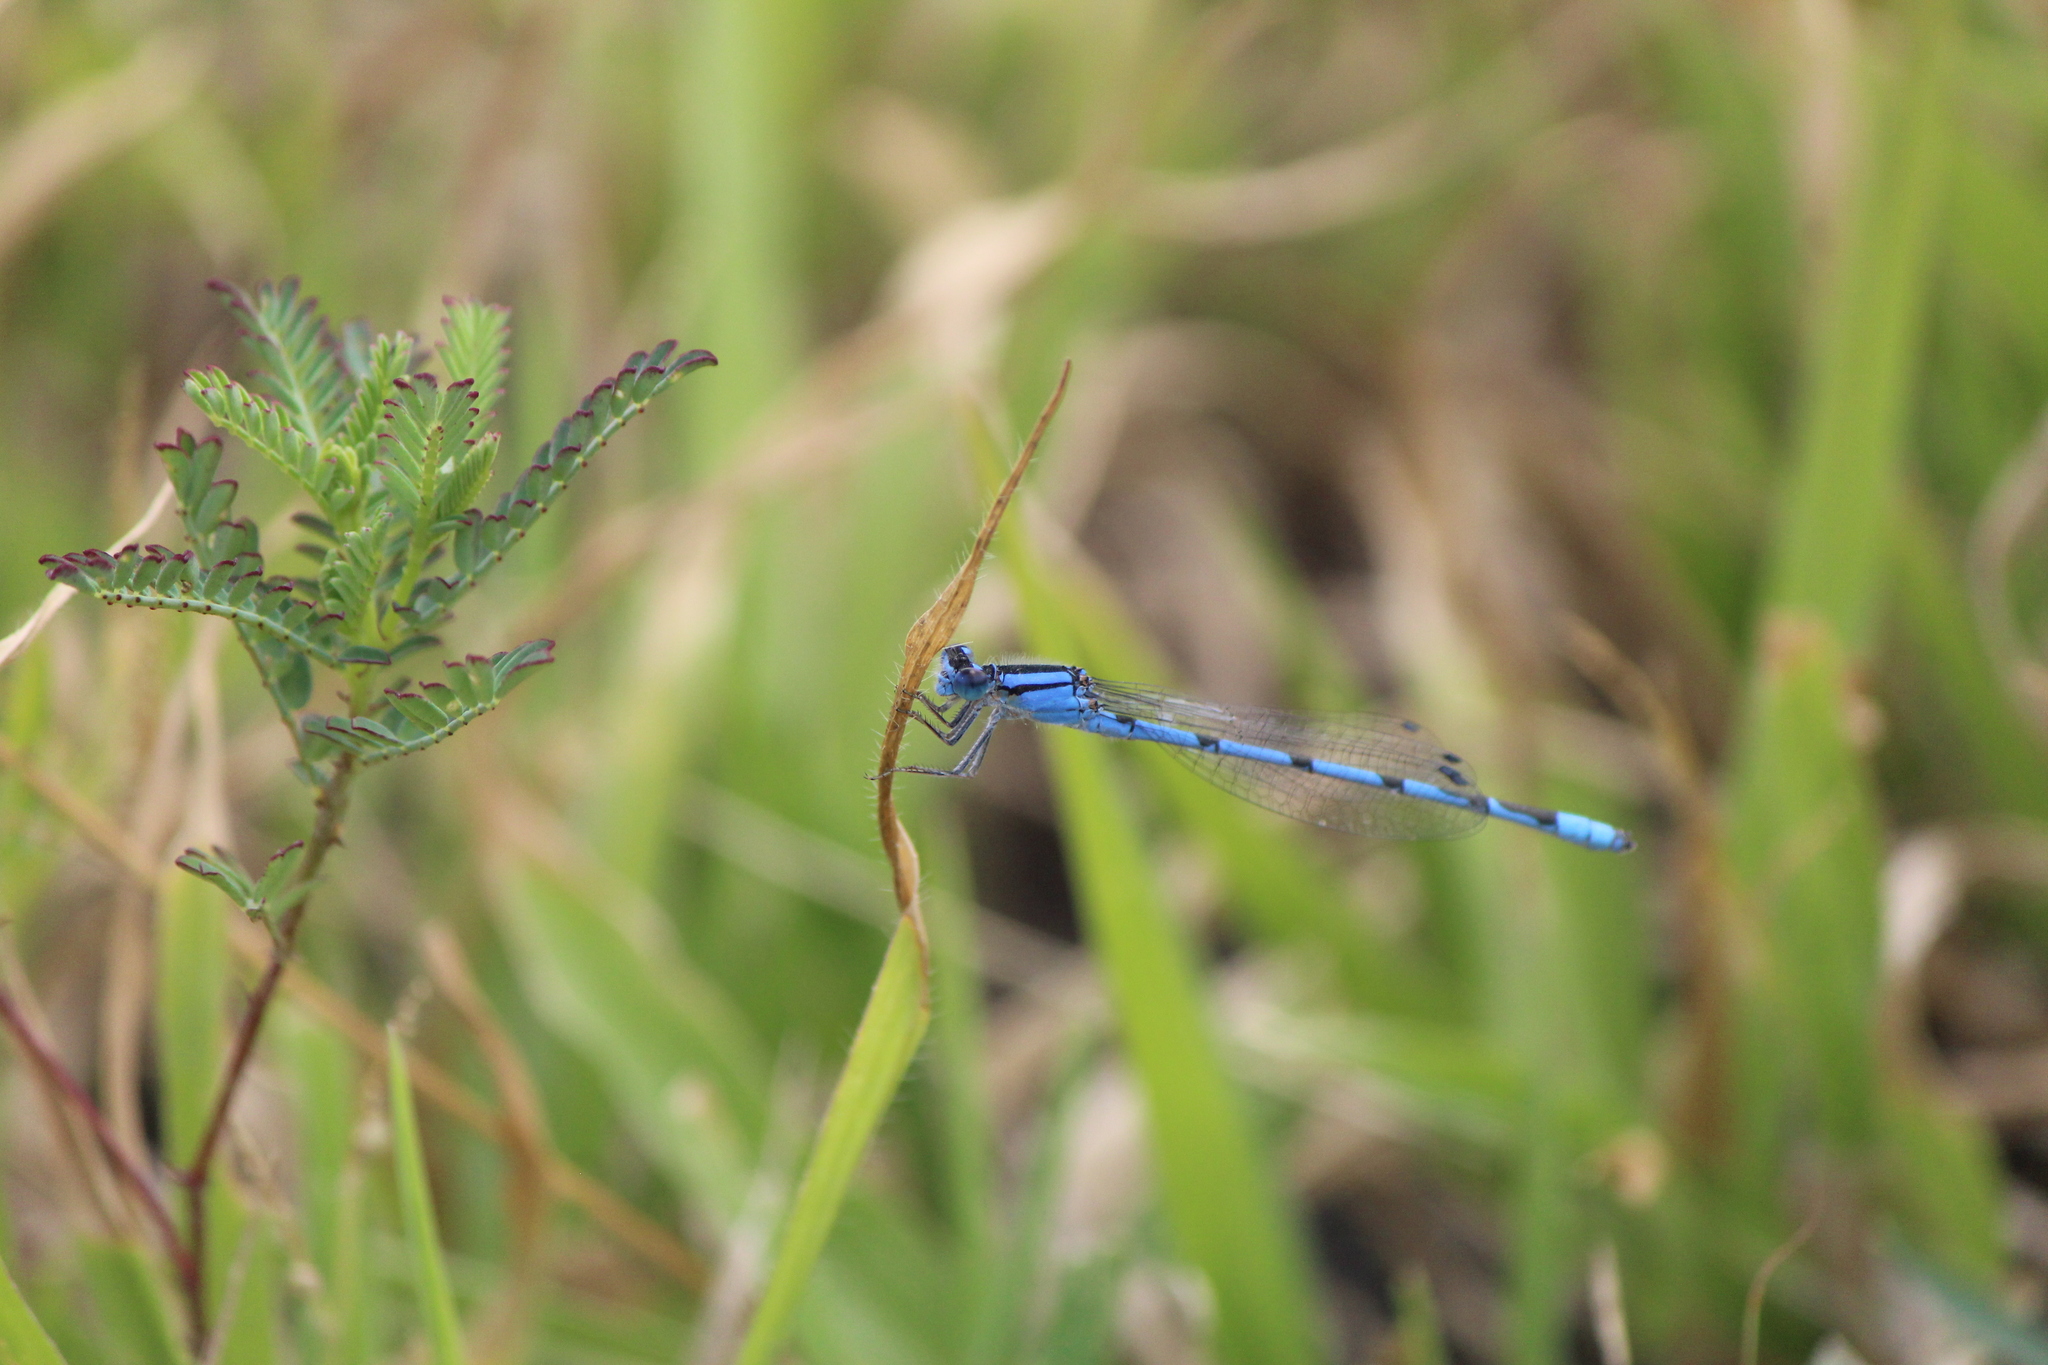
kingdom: Animalia
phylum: Arthropoda
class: Insecta
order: Odonata
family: Coenagrionidae
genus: Enallagma
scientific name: Enallagma civile
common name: Damselfly
